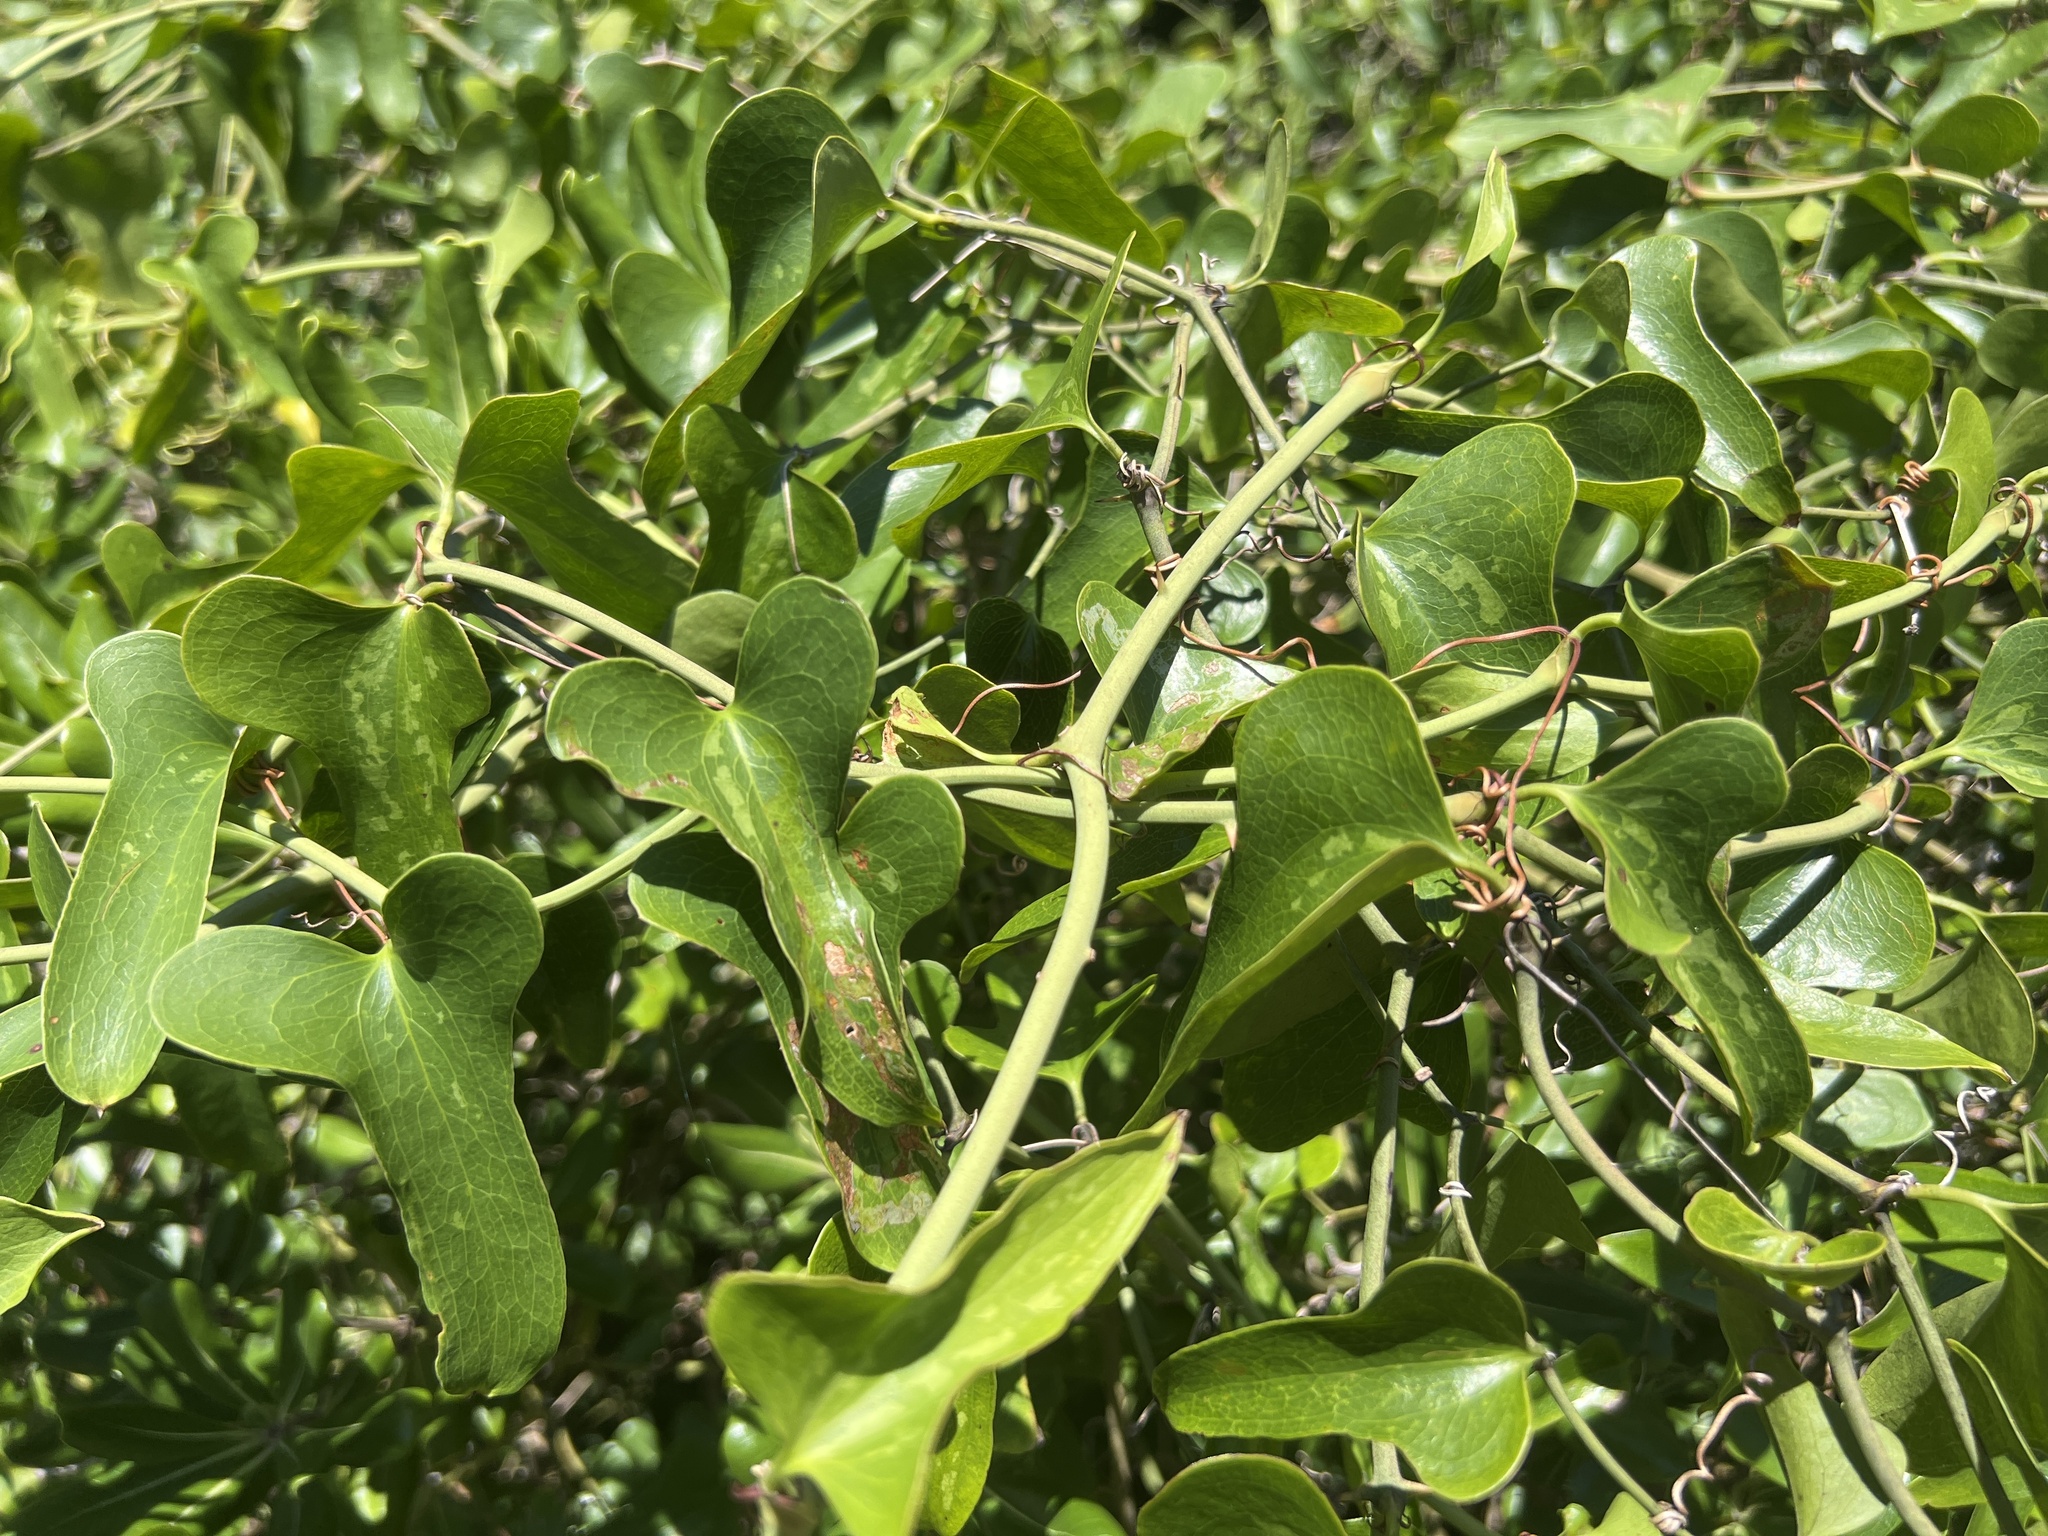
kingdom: Plantae
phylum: Tracheophyta
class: Liliopsida
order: Liliales
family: Smilacaceae
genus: Smilax
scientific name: Smilax bona-nox
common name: Catbrier
